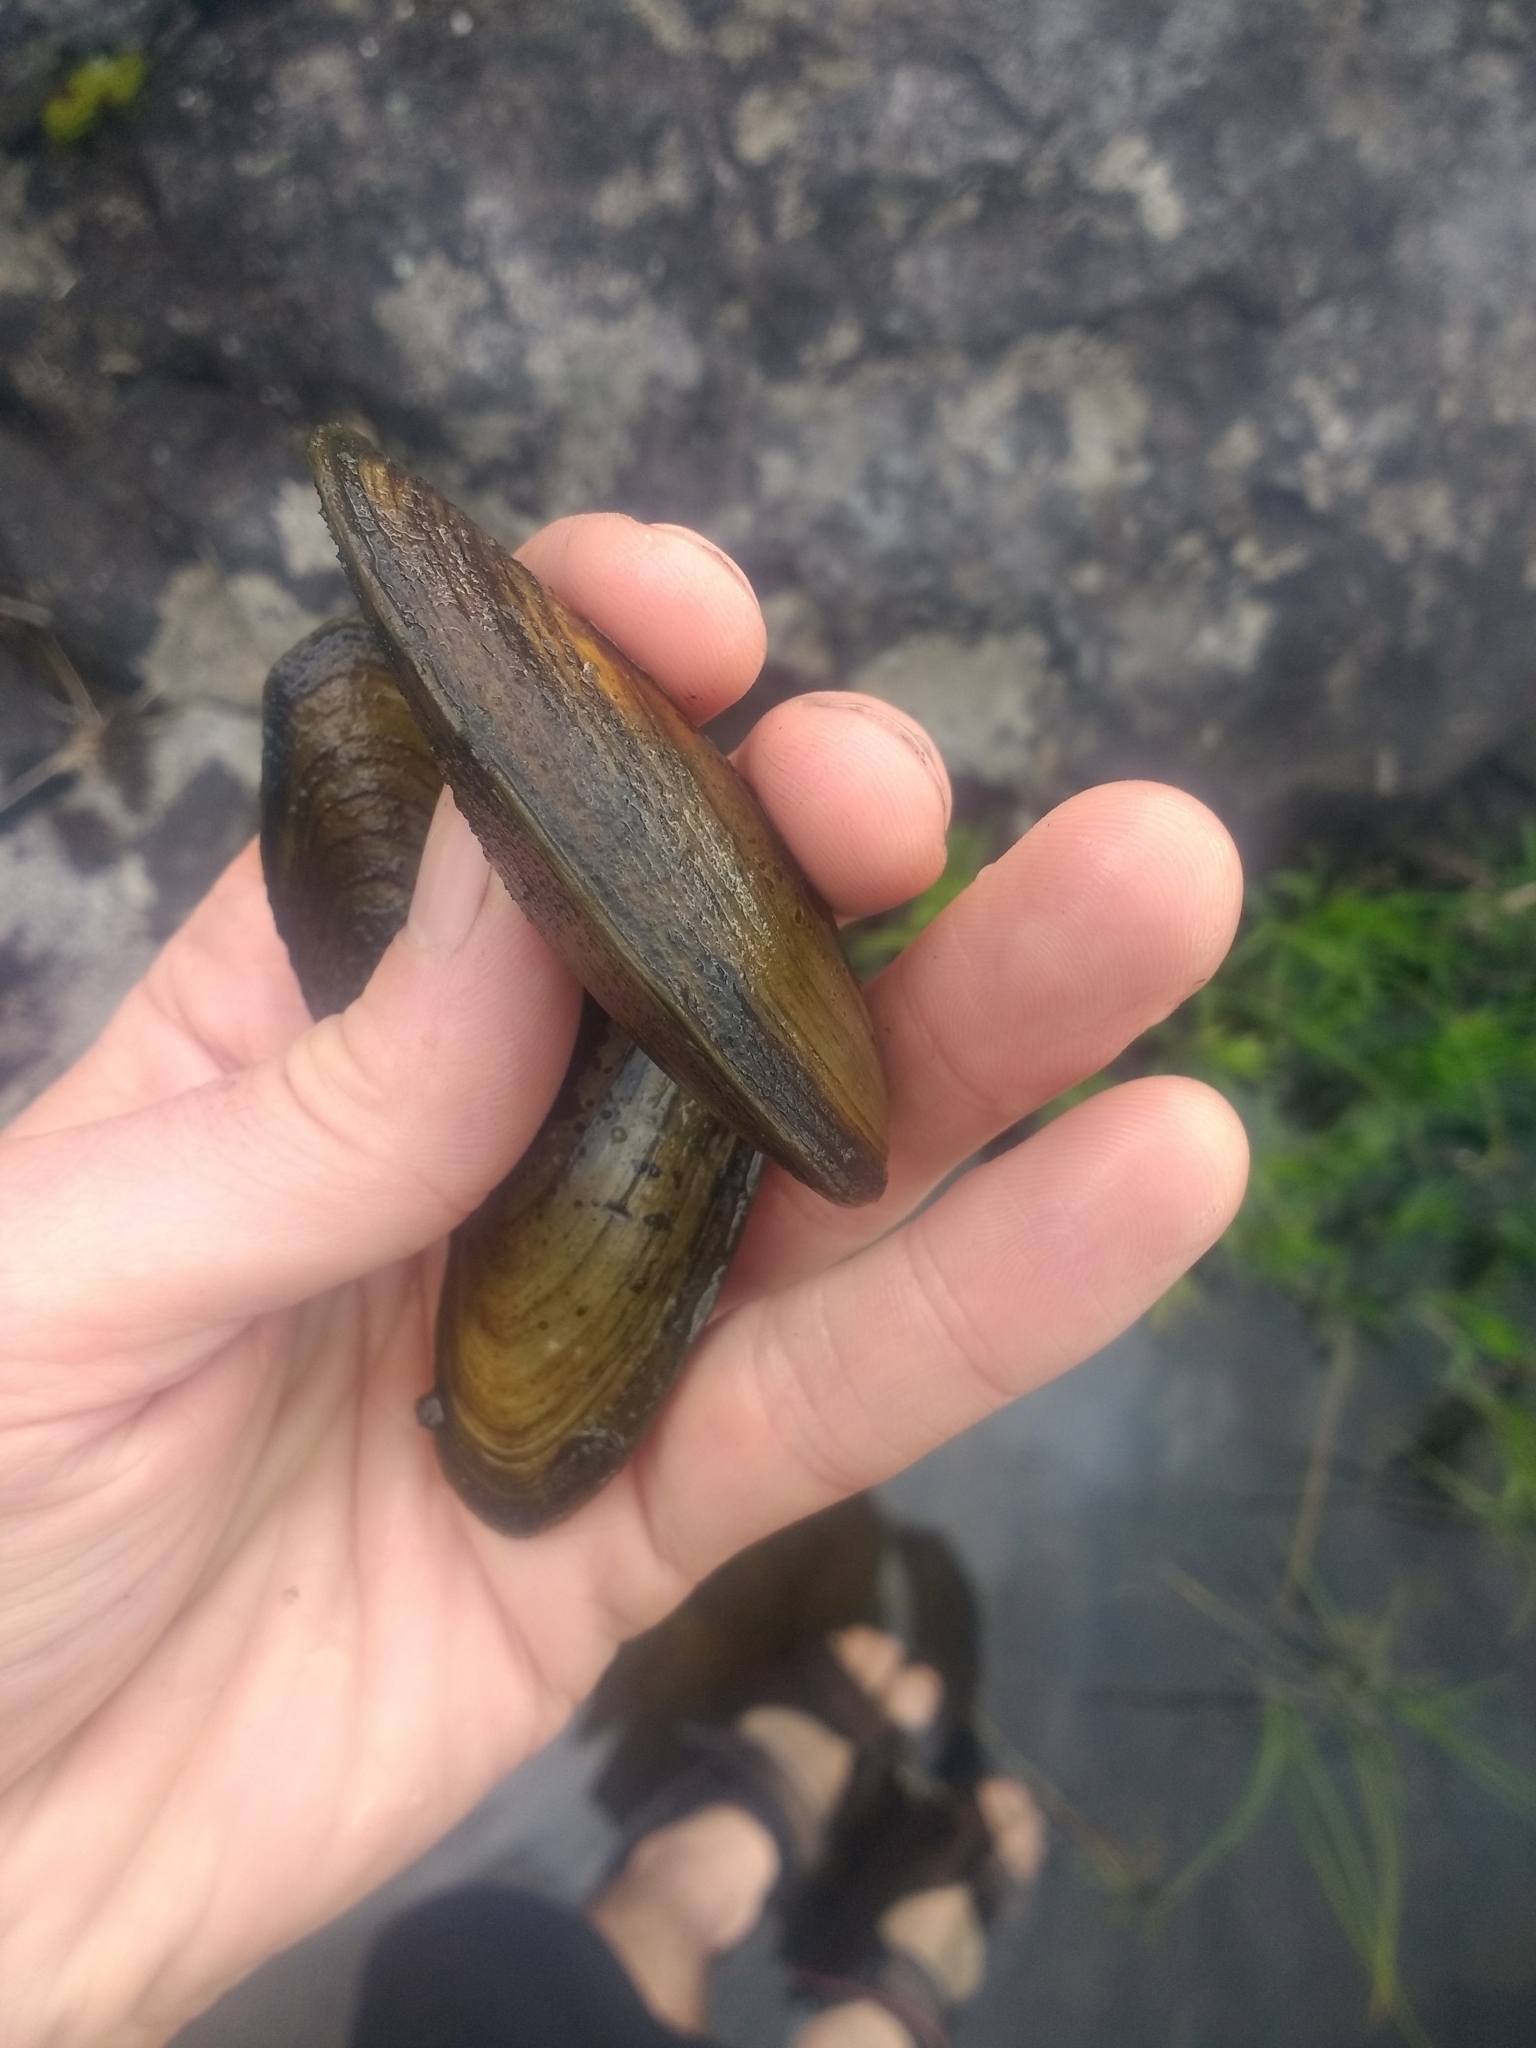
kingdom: Animalia
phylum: Mollusca
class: Bivalvia
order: Unionida
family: Unionidae
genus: Anodonta
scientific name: Anodonta kennerlyi
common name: Western floater
